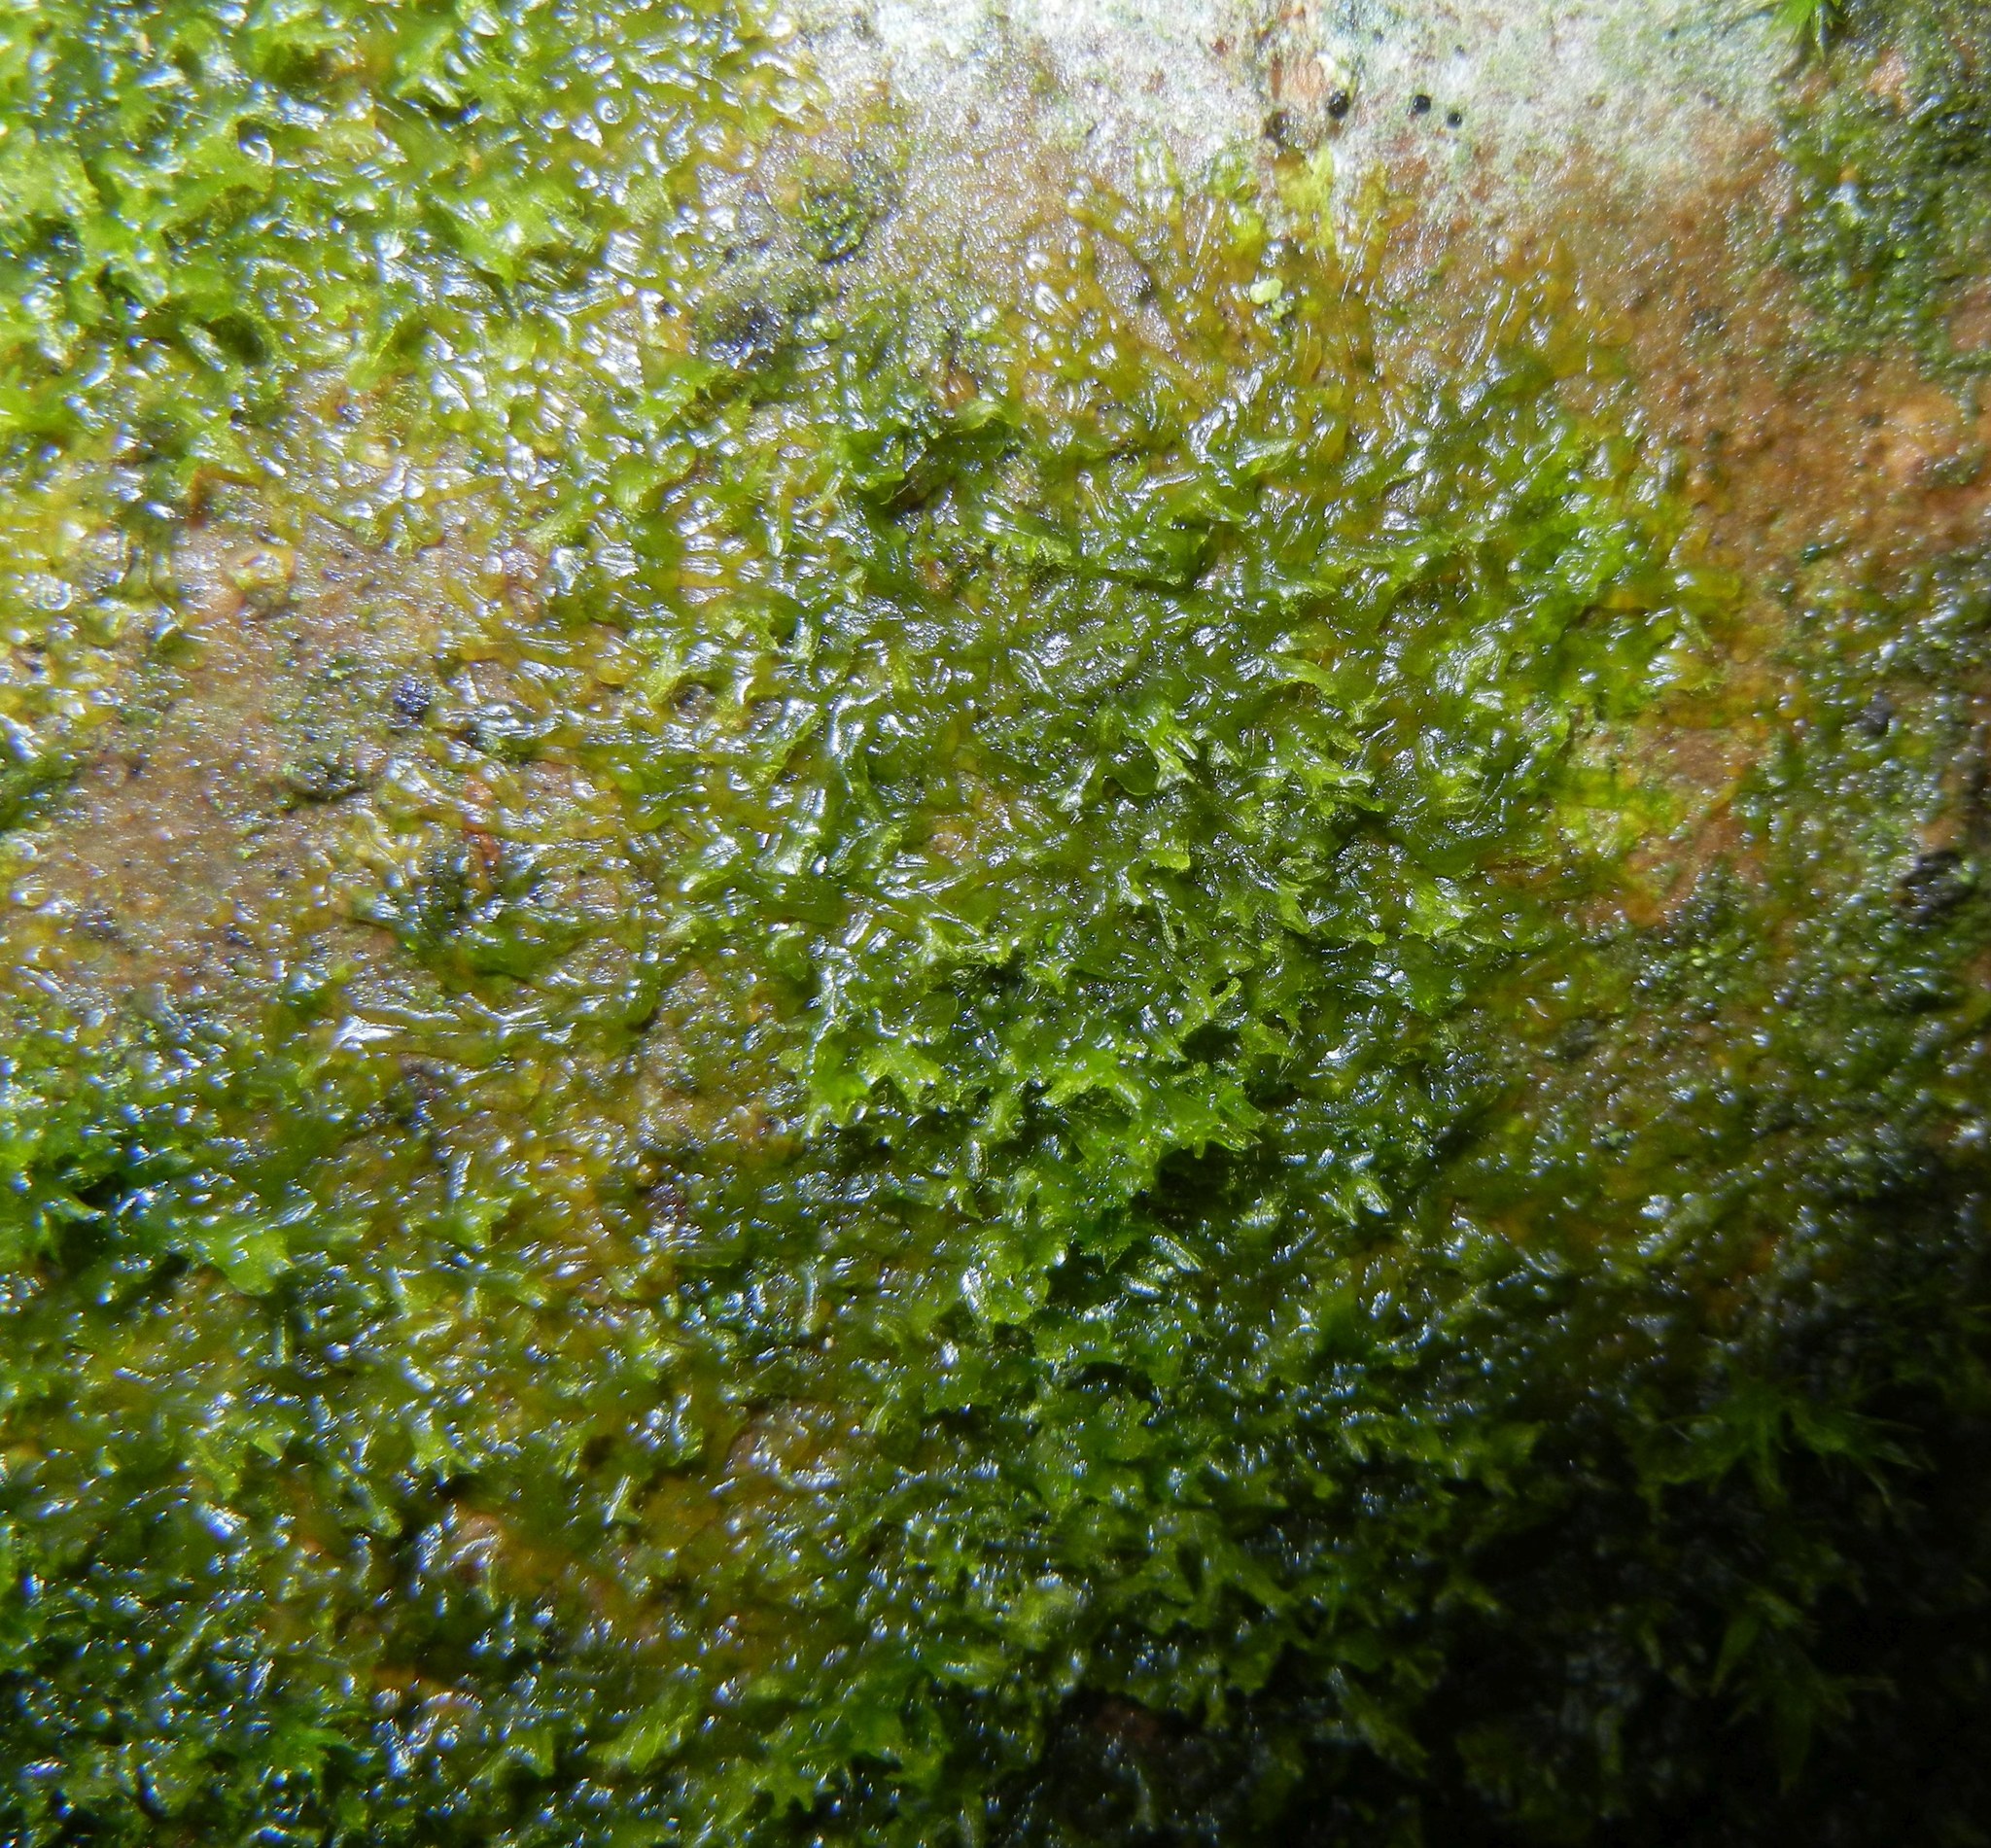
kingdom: Plantae
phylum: Marchantiophyta
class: Jungermanniopsida
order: Metzgeriales
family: Metzgeriaceae
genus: Metzgeria
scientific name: Metzgeria violacea
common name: Blueish veilwort
